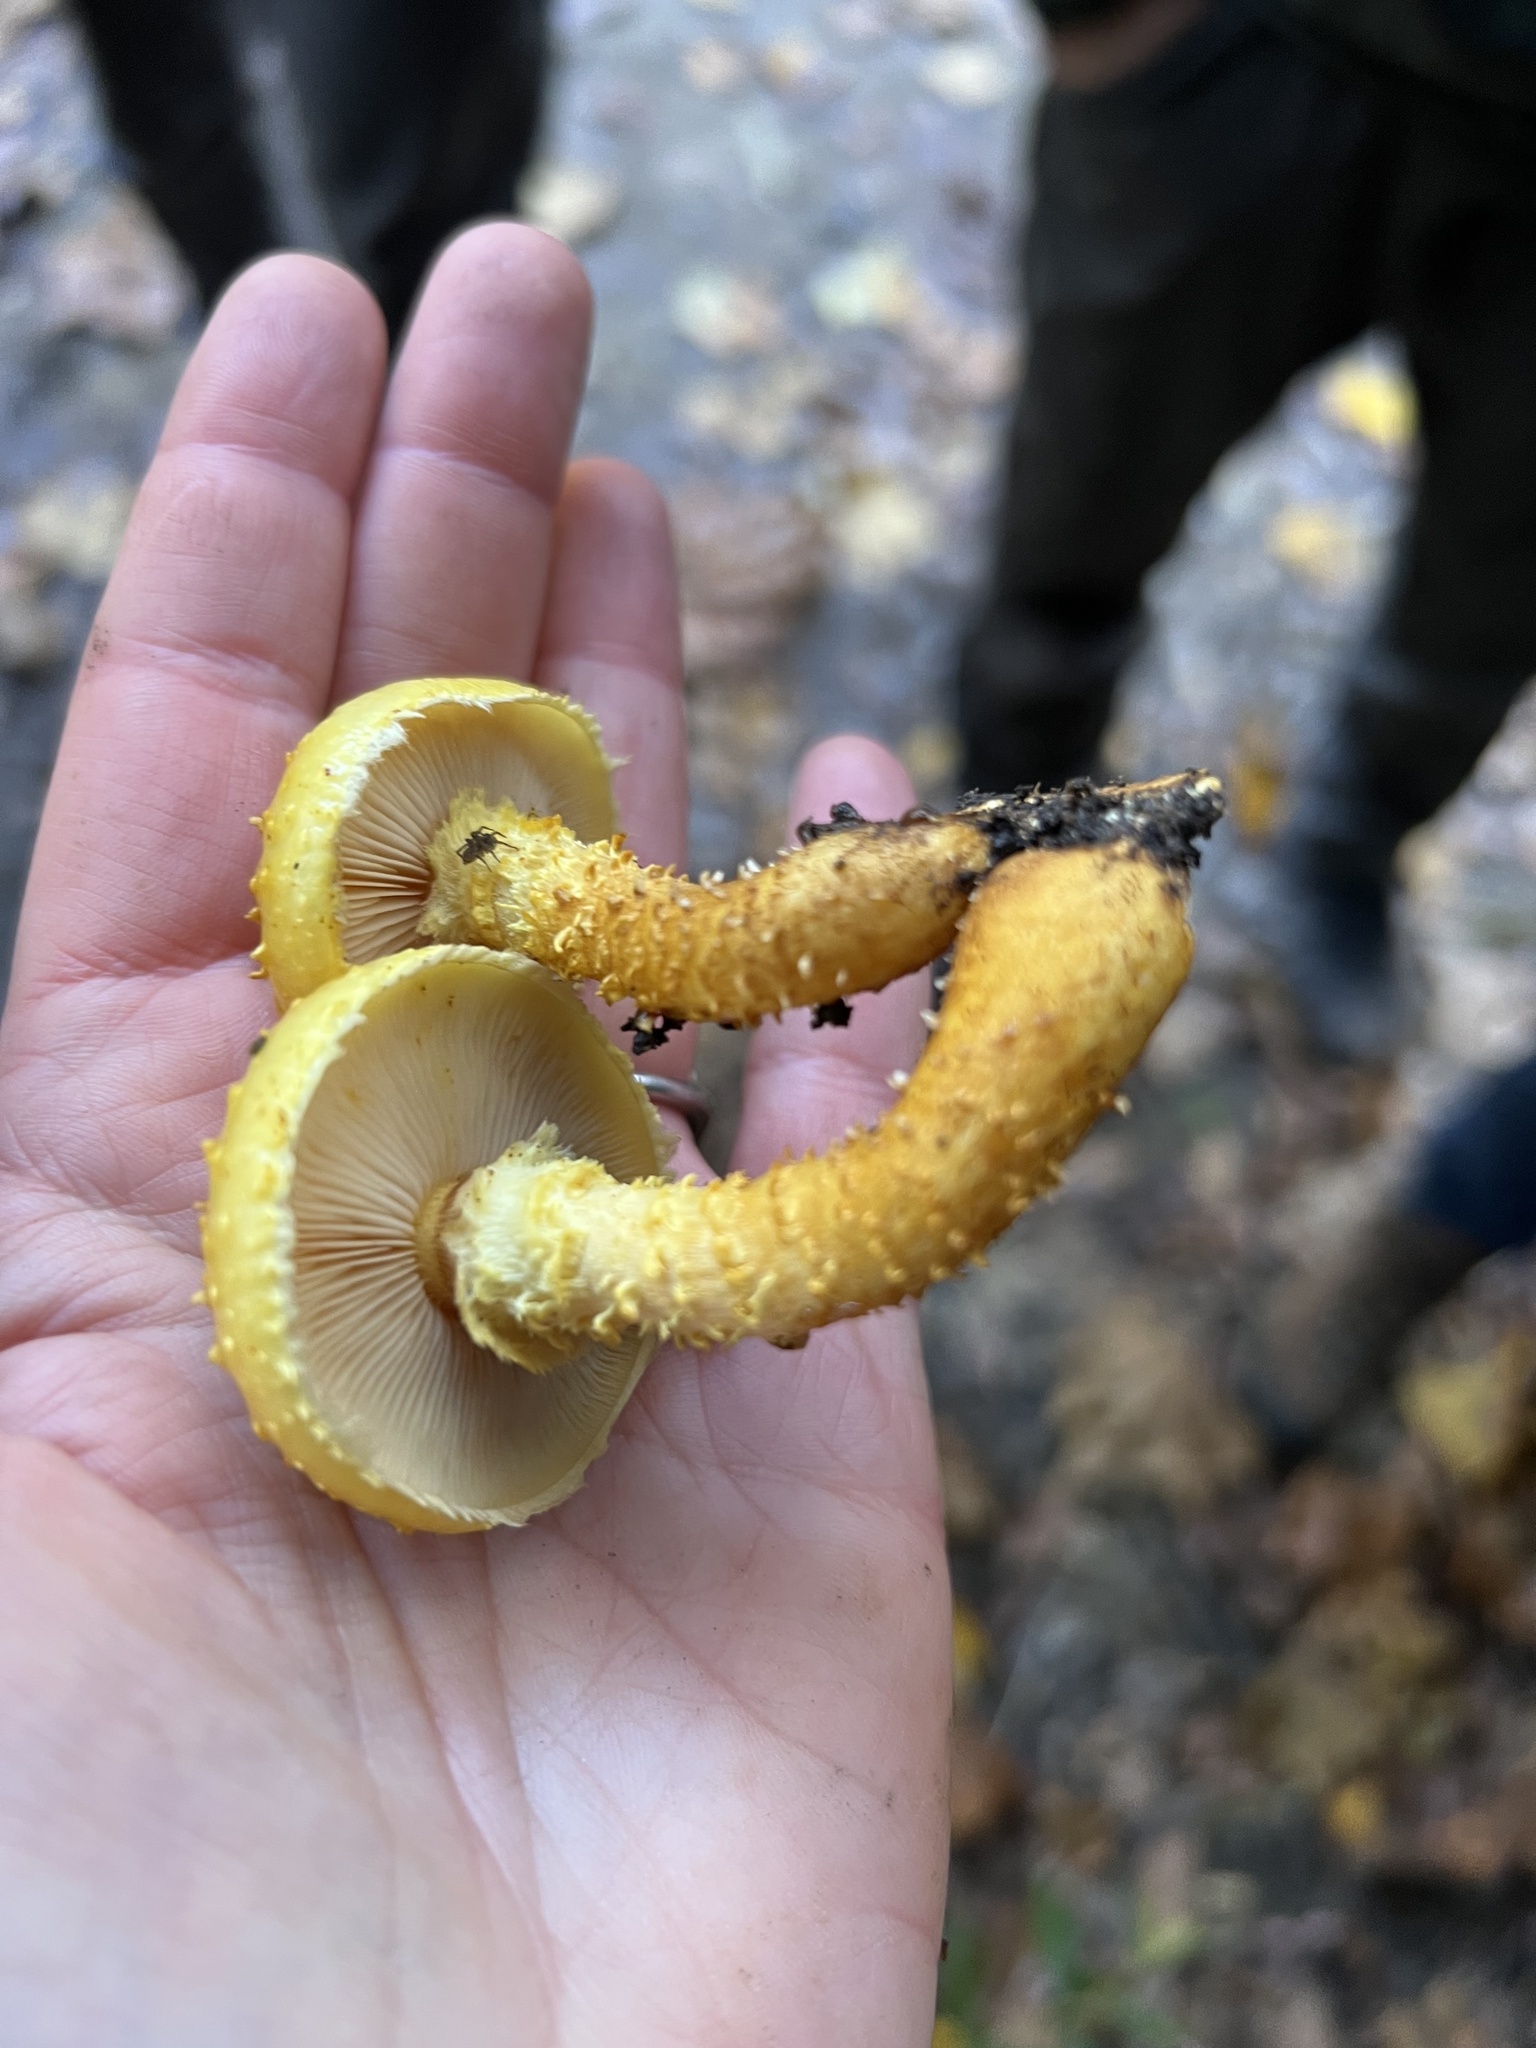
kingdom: Fungi
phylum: Basidiomycota
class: Agaricomycetes
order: Agaricales
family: Strophariaceae
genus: Pholiota
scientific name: Pholiota aurivella
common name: Golden scalycap
